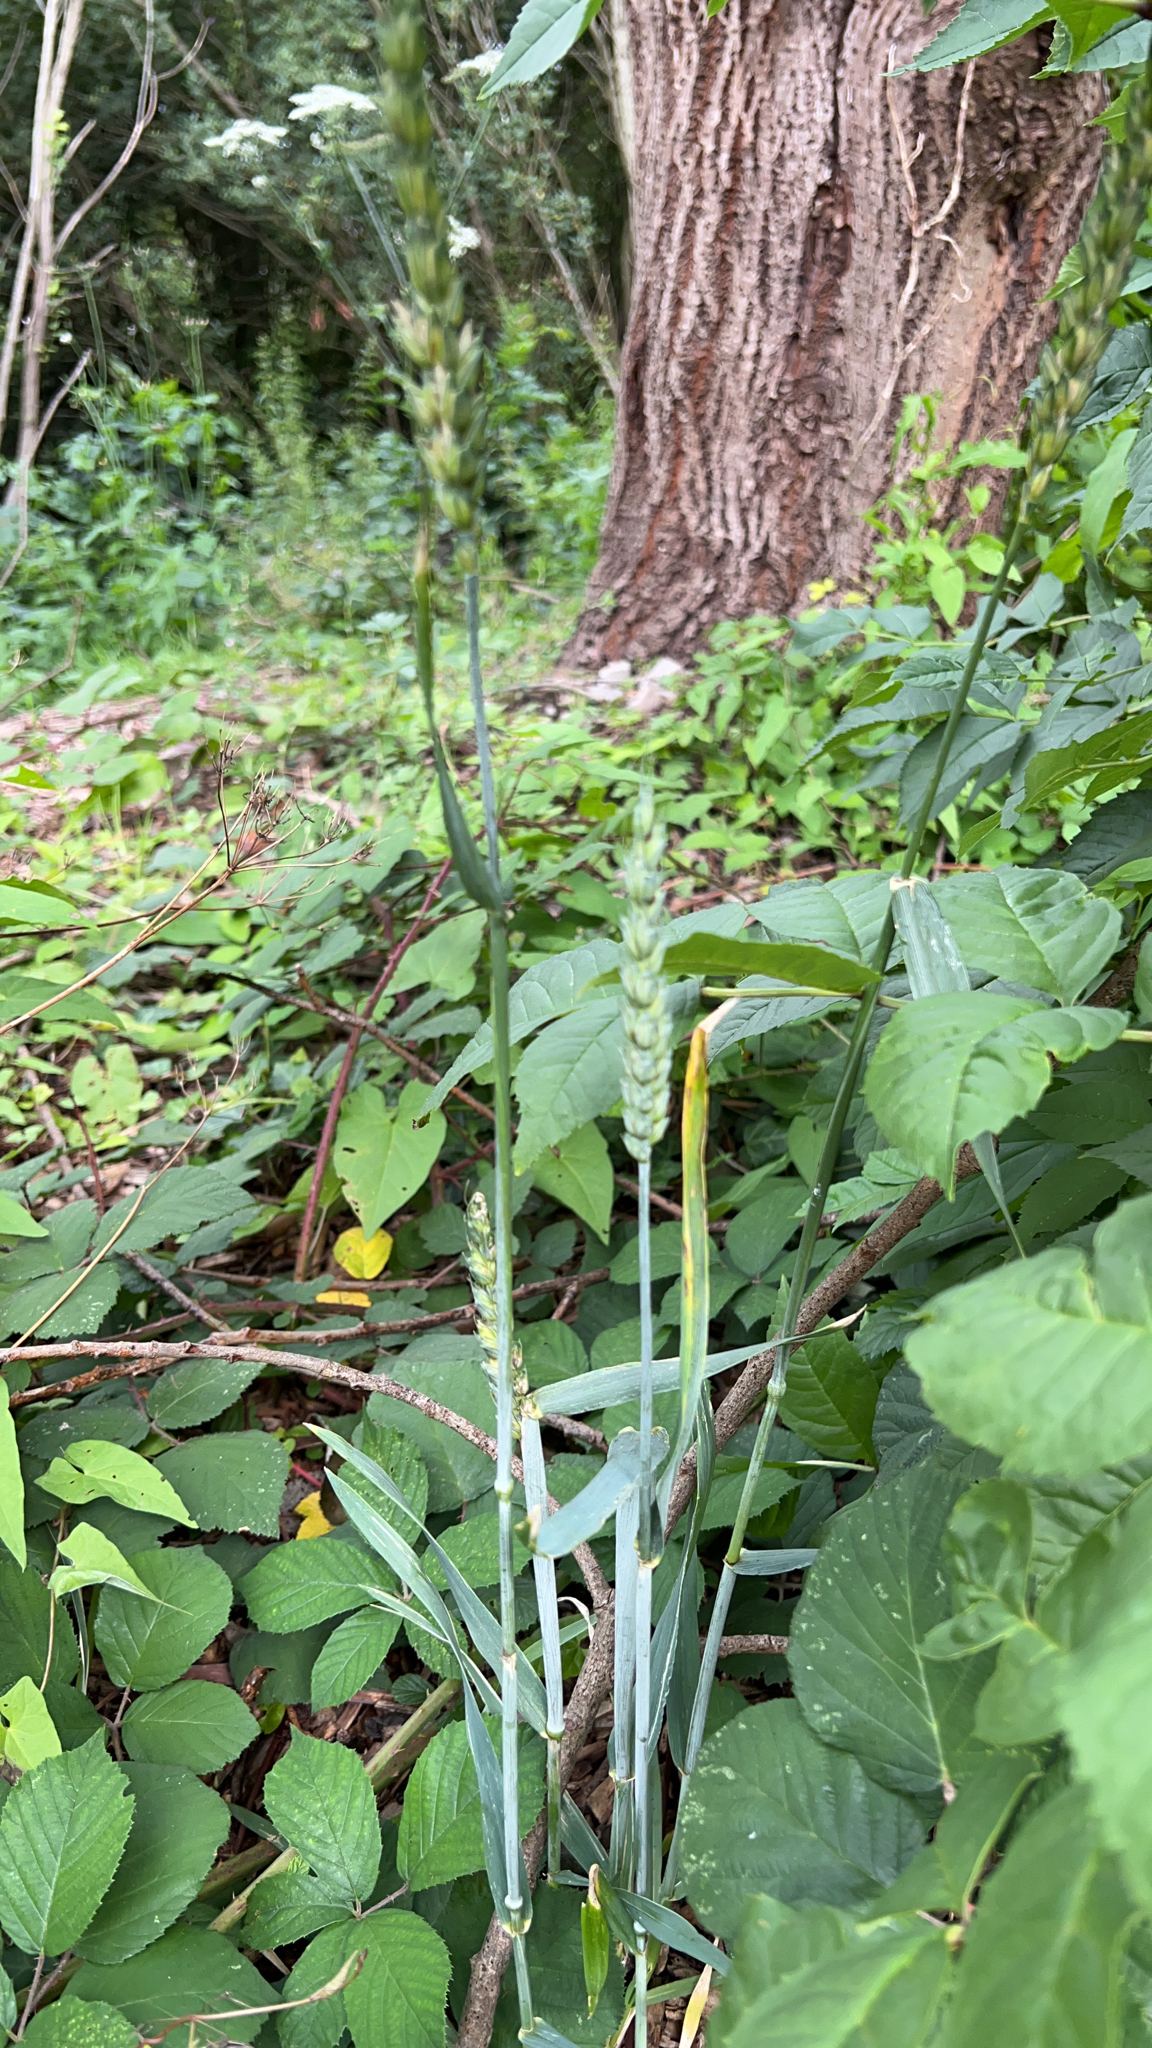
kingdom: Plantae
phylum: Tracheophyta
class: Liliopsida
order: Poales
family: Poaceae
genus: Triticum
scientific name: Triticum aestivum
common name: Common wheat
